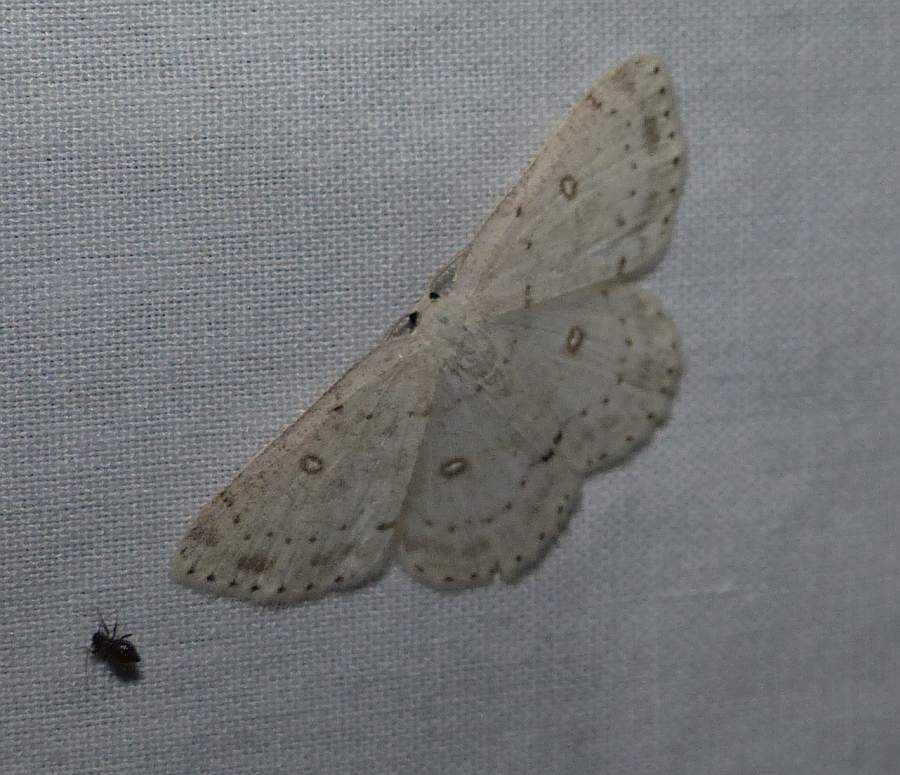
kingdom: Animalia
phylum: Arthropoda
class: Insecta
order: Lepidoptera
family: Geometridae
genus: Cyclophora
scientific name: Cyclophora pendulinaria
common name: Sweet fern geometer
